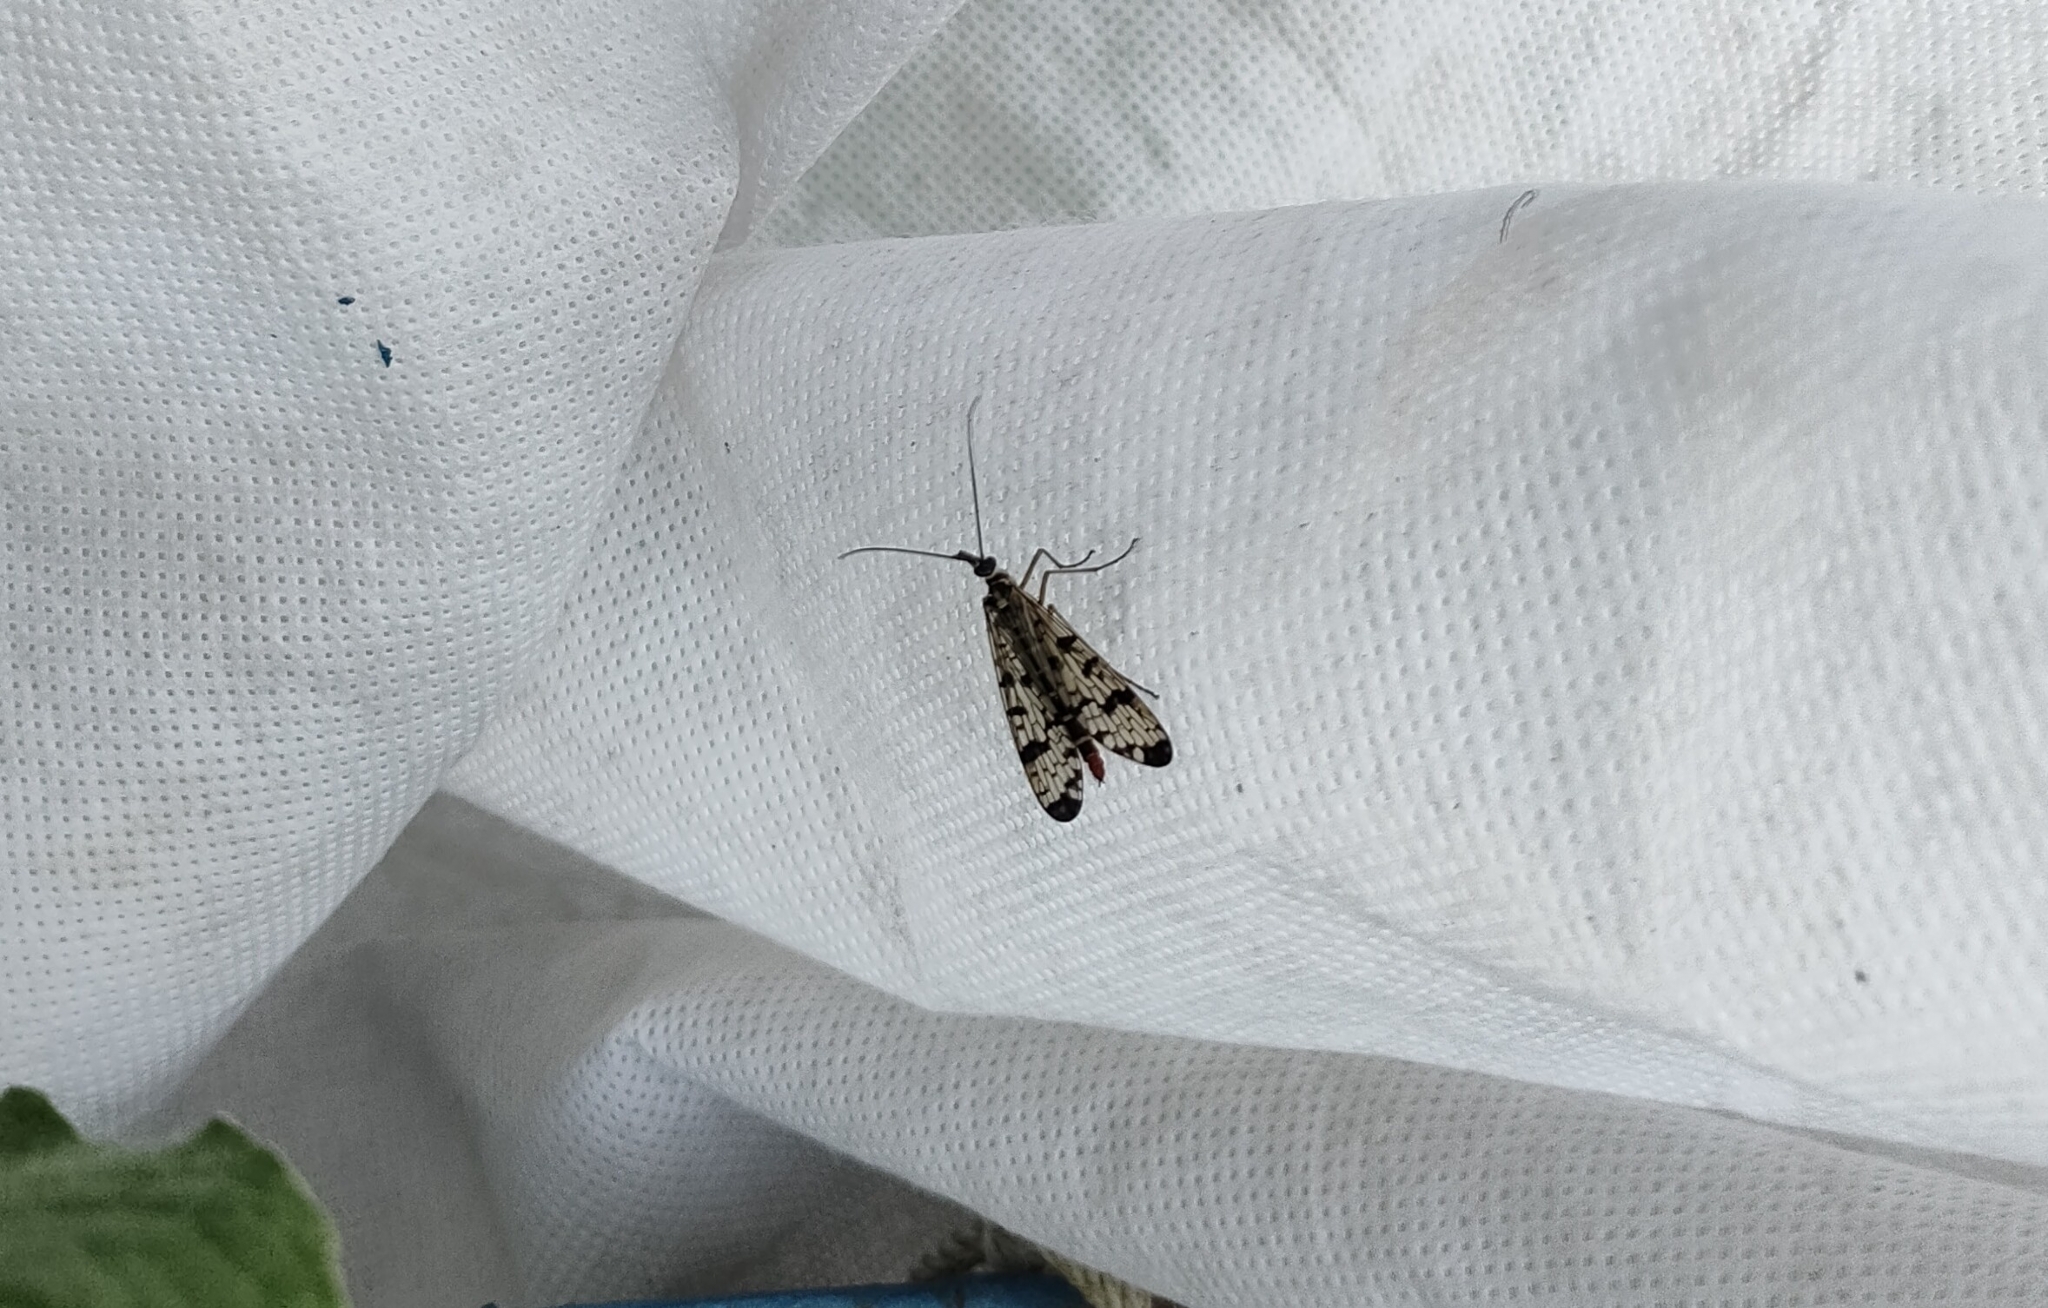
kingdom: Animalia
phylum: Arthropoda
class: Insecta
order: Mecoptera
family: Panorpidae
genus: Panorpa
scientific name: Panorpa communis
